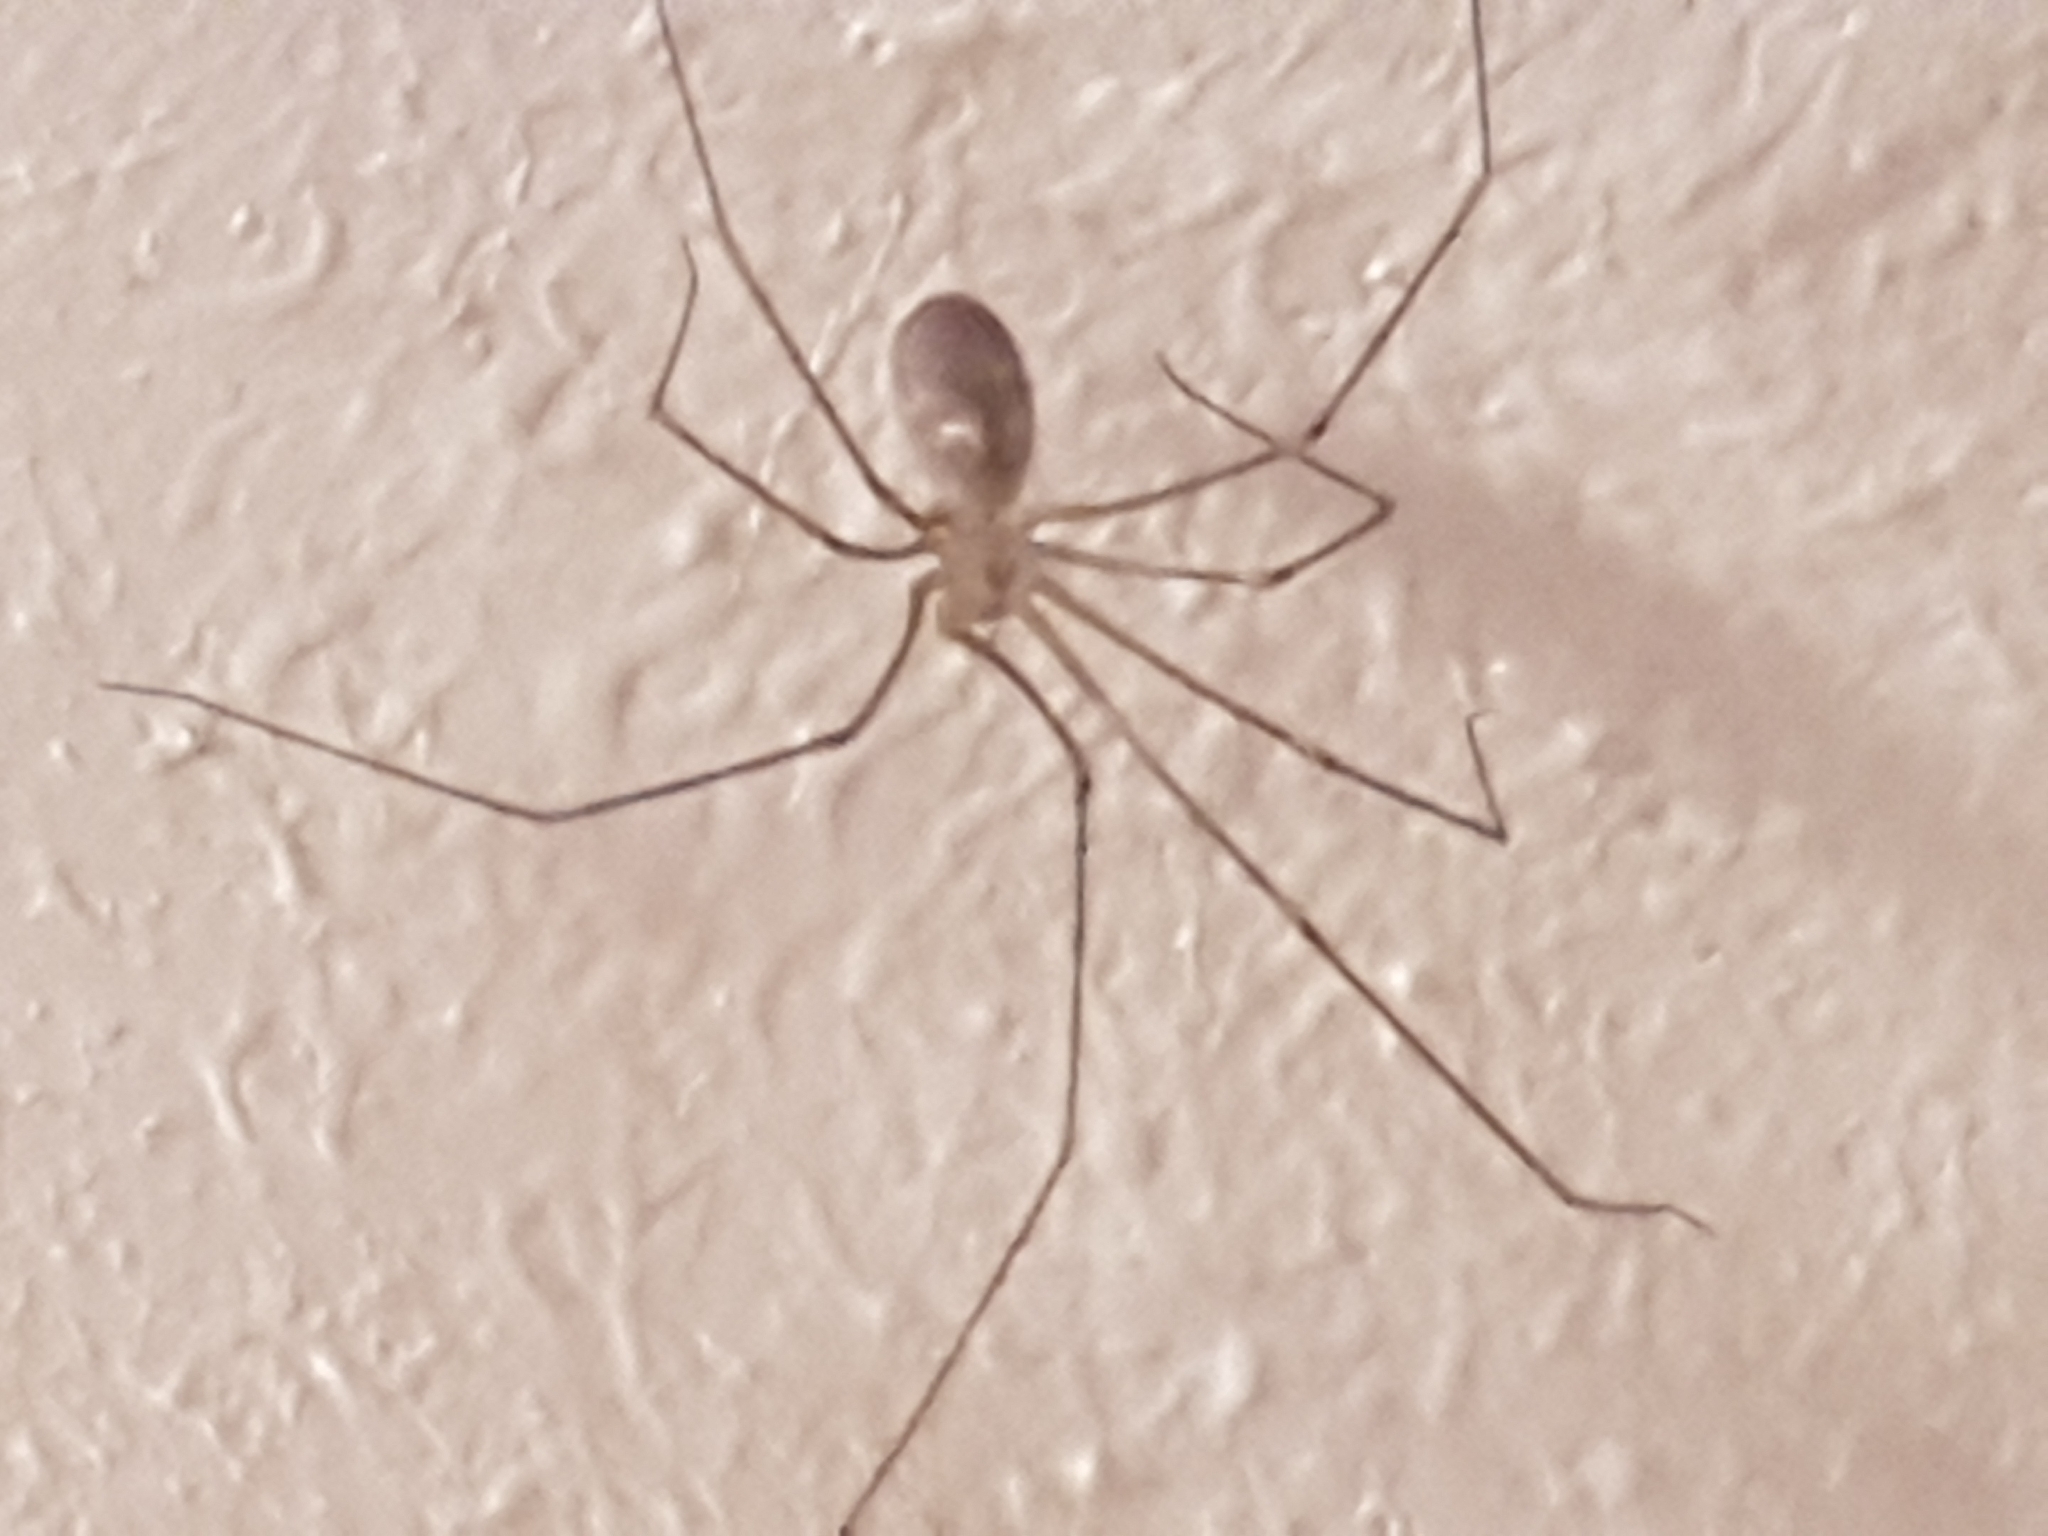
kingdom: Animalia
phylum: Arthropoda
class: Arachnida
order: Araneae
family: Pholcidae
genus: Pholcus
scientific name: Pholcus phalangioides
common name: Longbodied cellar spider
